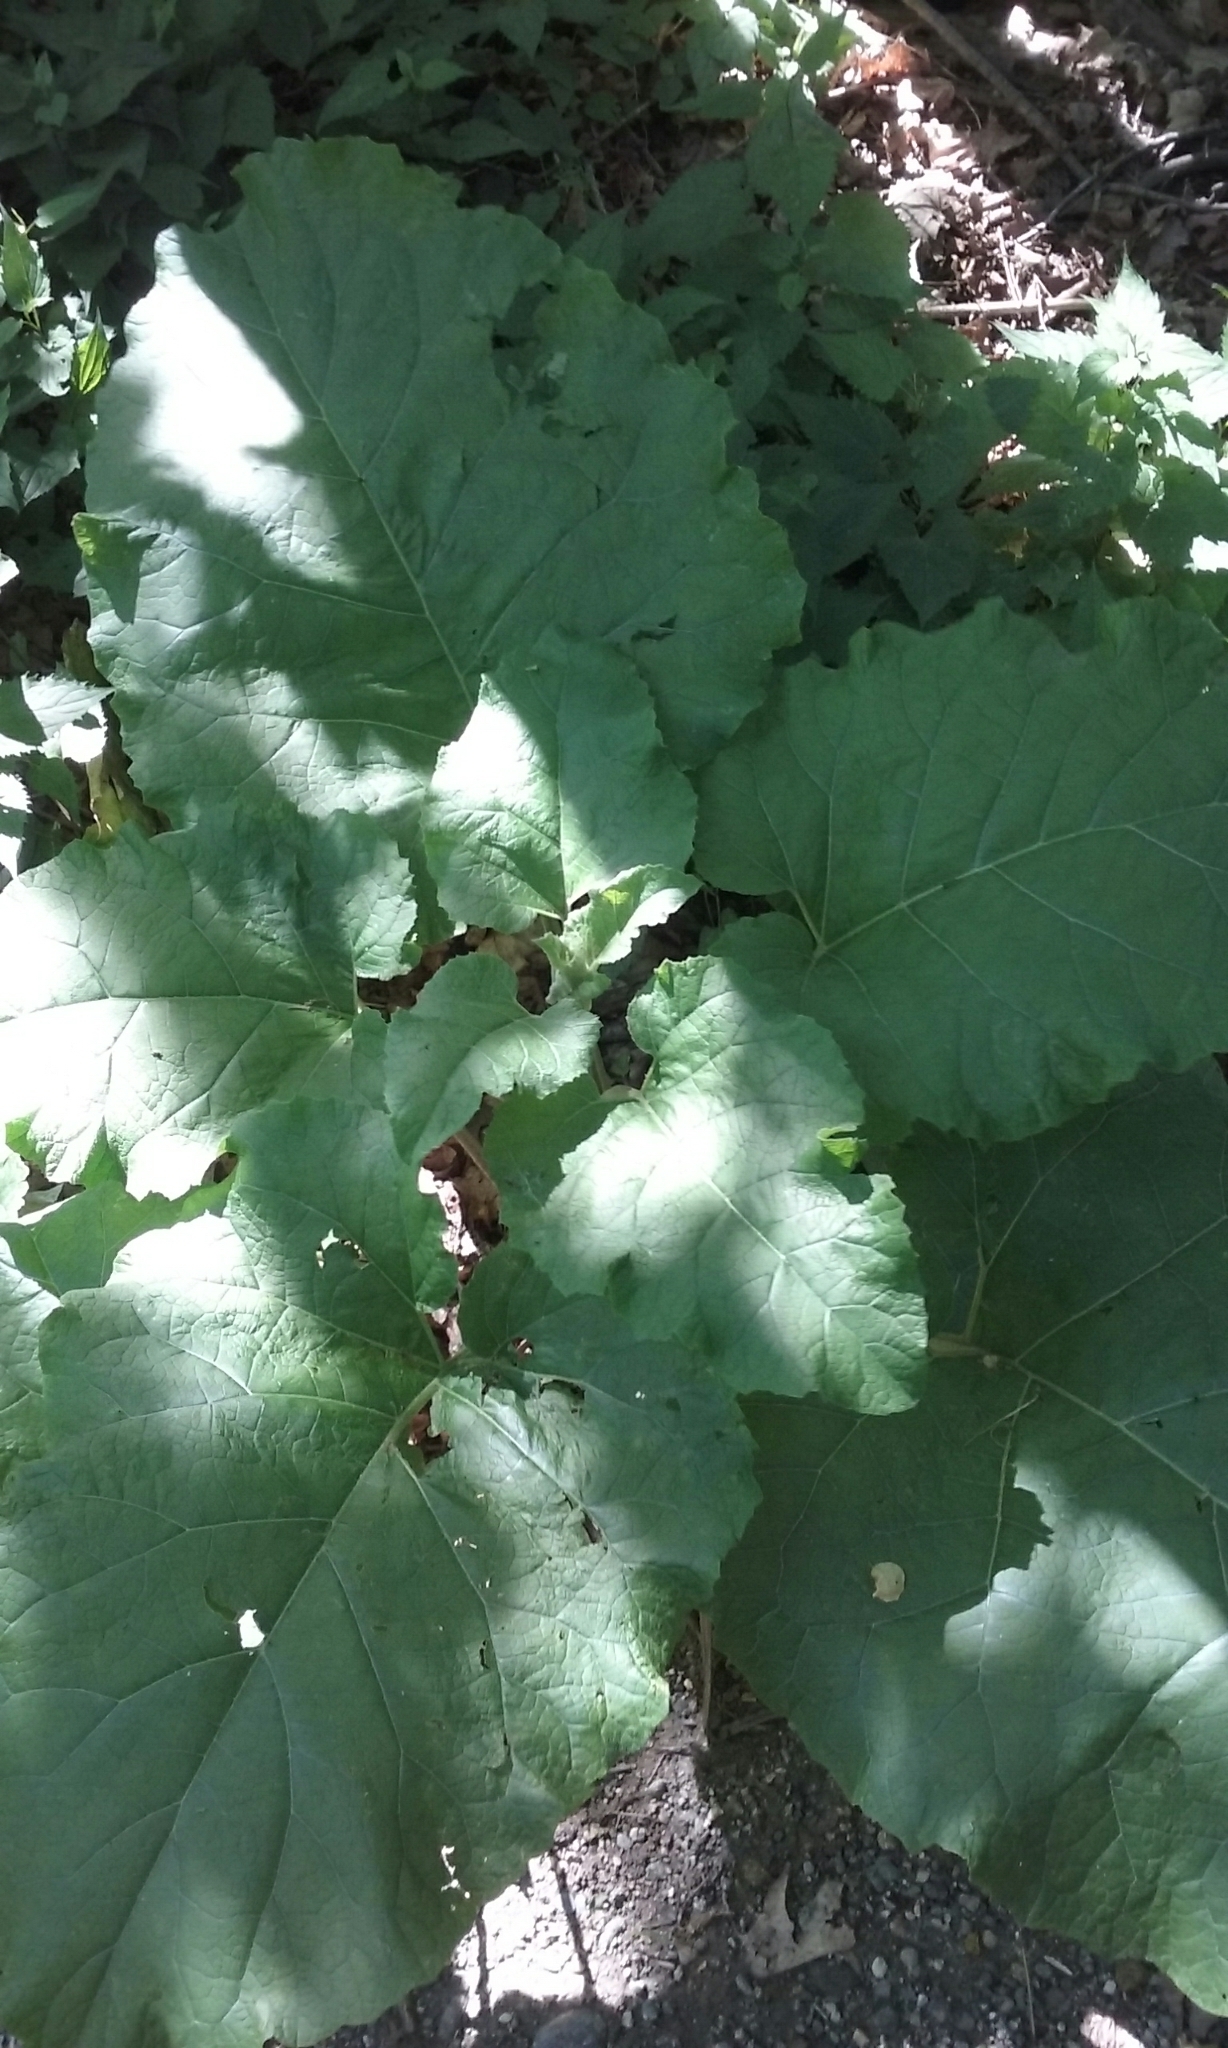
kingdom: Plantae
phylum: Tracheophyta
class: Magnoliopsida
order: Asterales
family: Asteraceae
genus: Arctium
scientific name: Arctium
